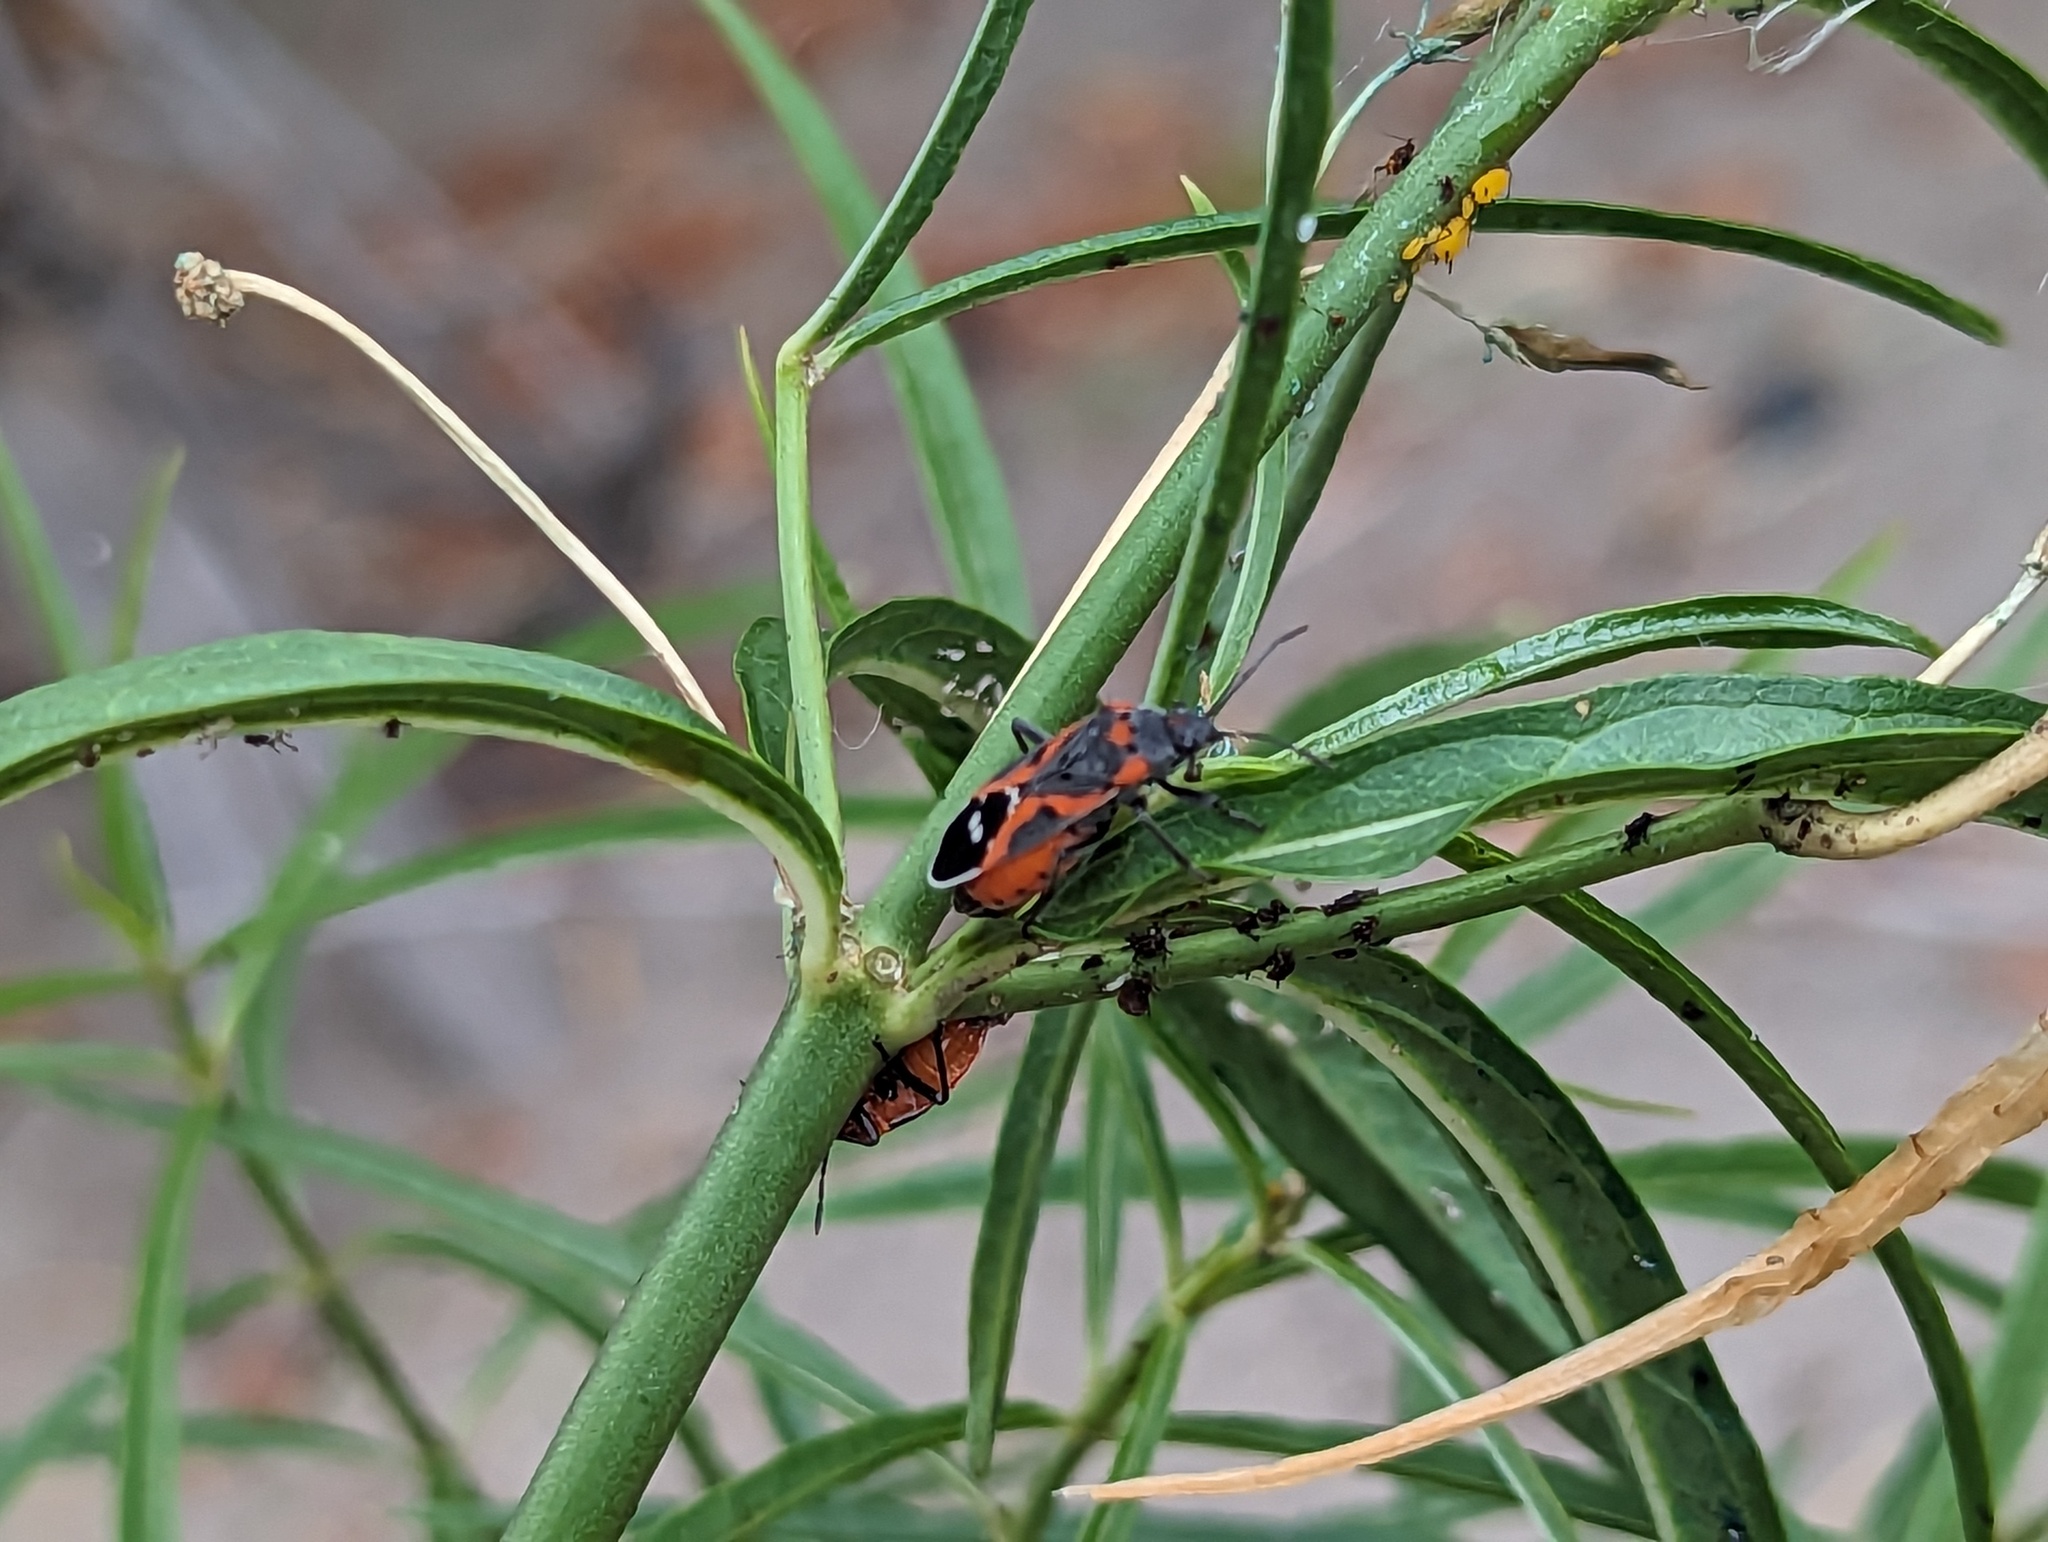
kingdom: Animalia
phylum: Arthropoda
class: Insecta
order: Hemiptera
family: Lygaeidae
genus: Lygaeus
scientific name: Lygaeus kalmii
